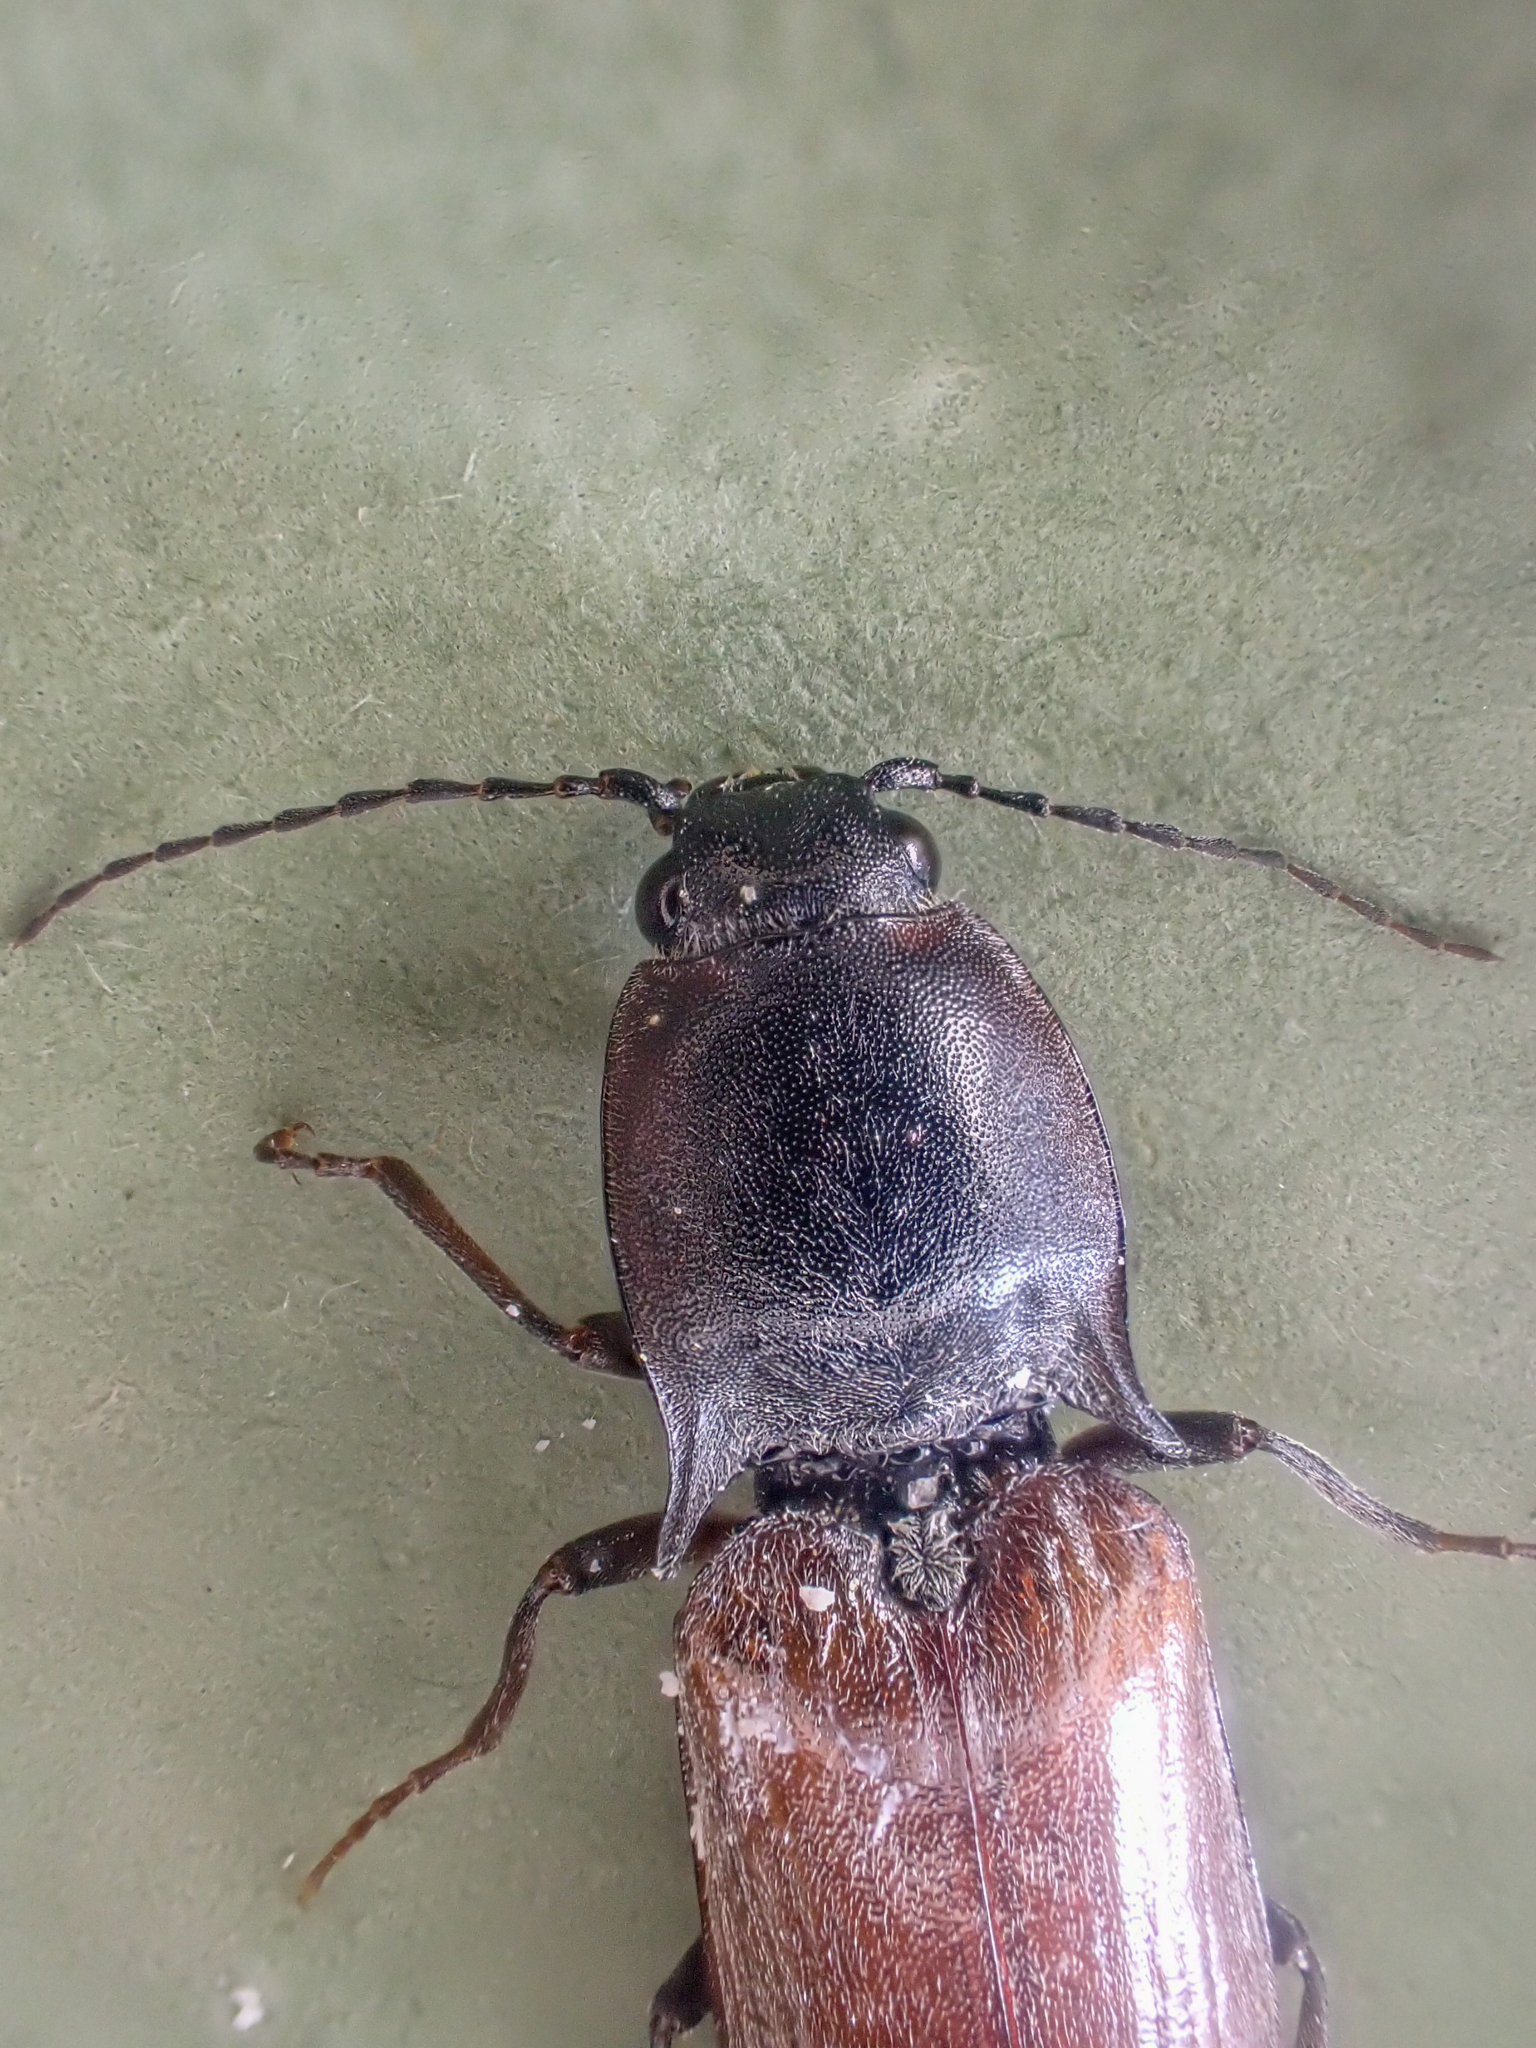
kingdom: Animalia
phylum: Arthropoda
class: Insecta
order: Coleoptera
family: Elateridae
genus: Acteniceromorphus
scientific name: Acteniceromorphus volitans
